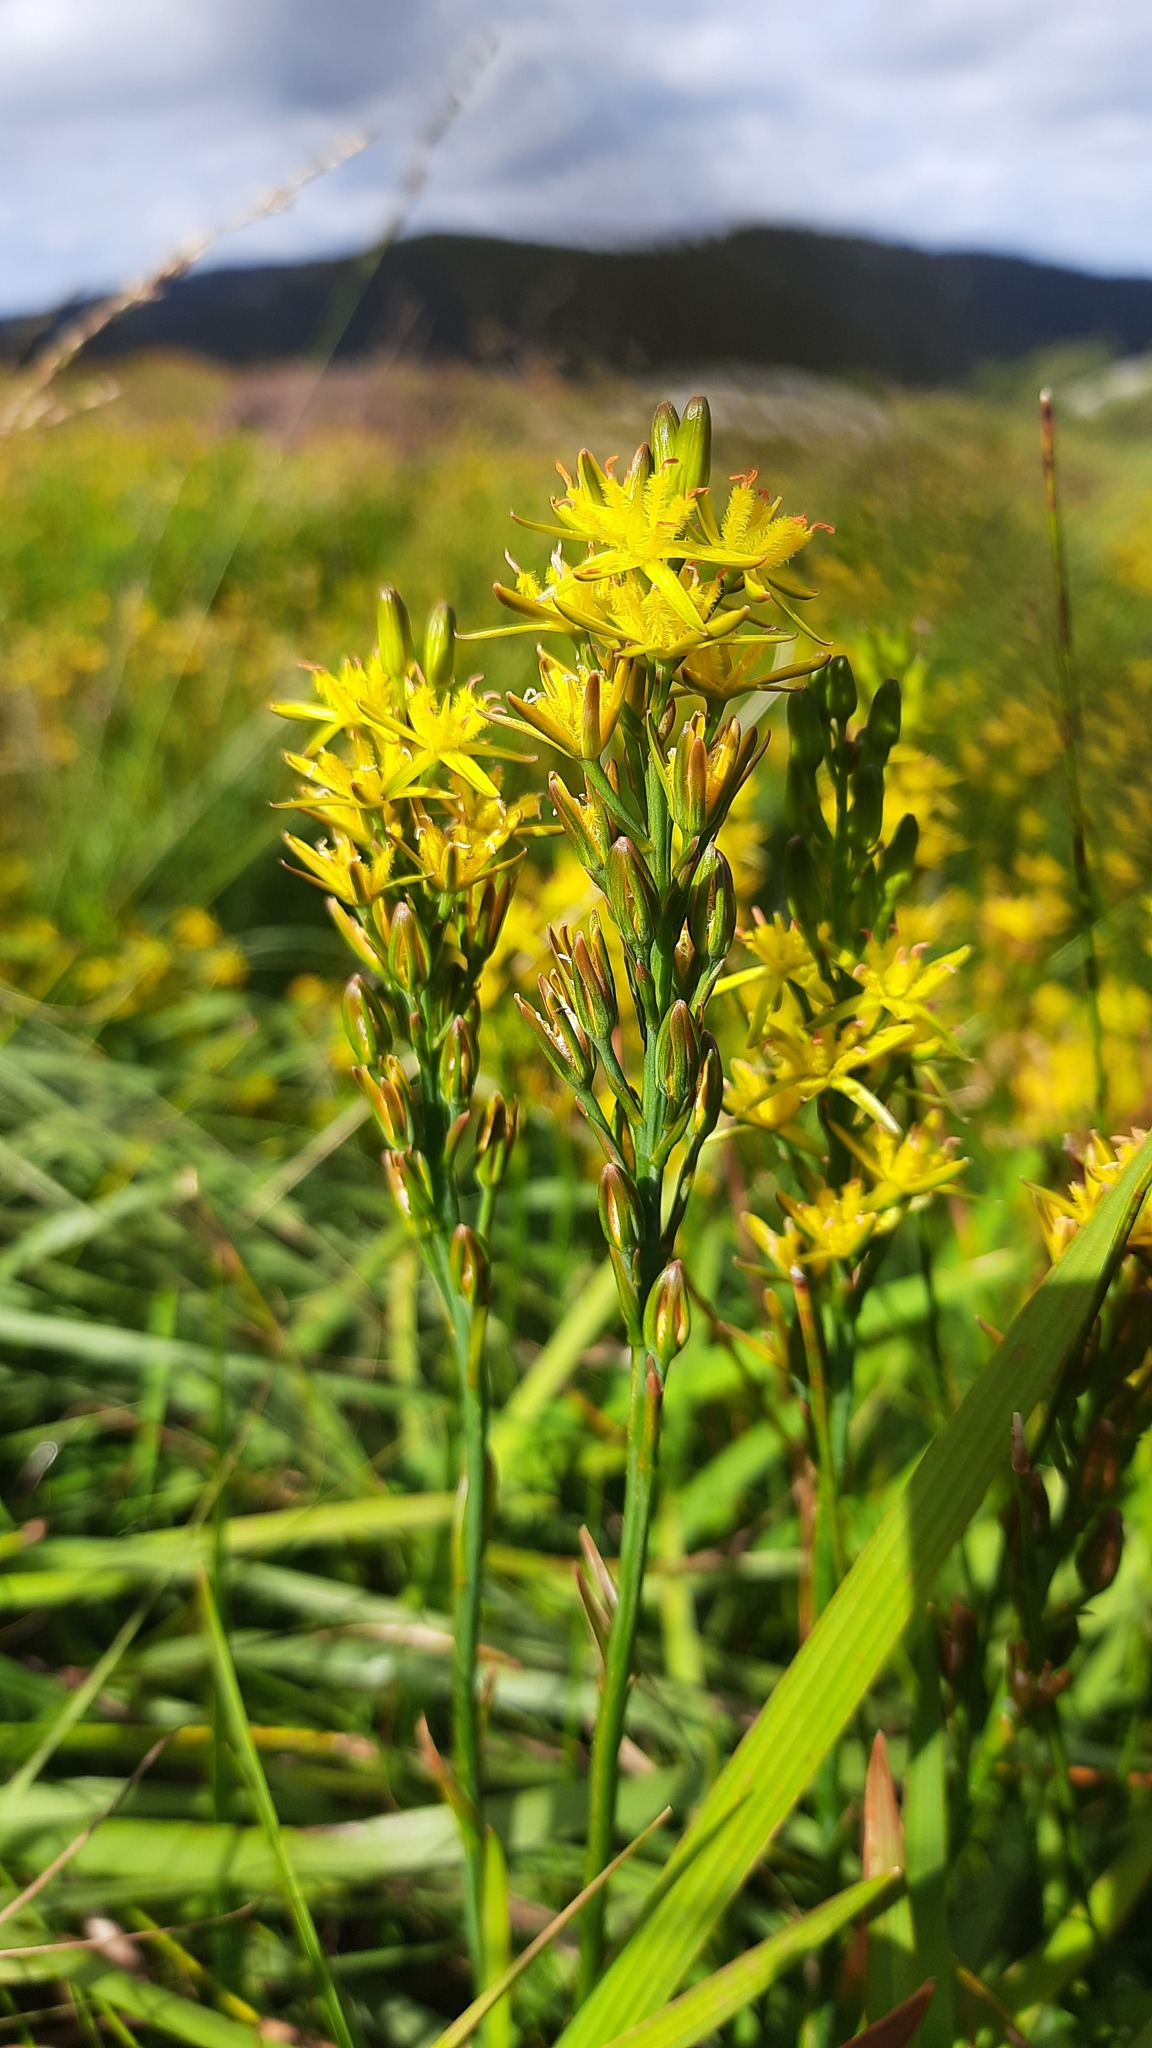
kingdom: Plantae
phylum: Tracheophyta
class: Liliopsida
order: Dioscoreales
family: Nartheciaceae
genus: Narthecium
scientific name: Narthecium ossifragum
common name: Bog asphodel
